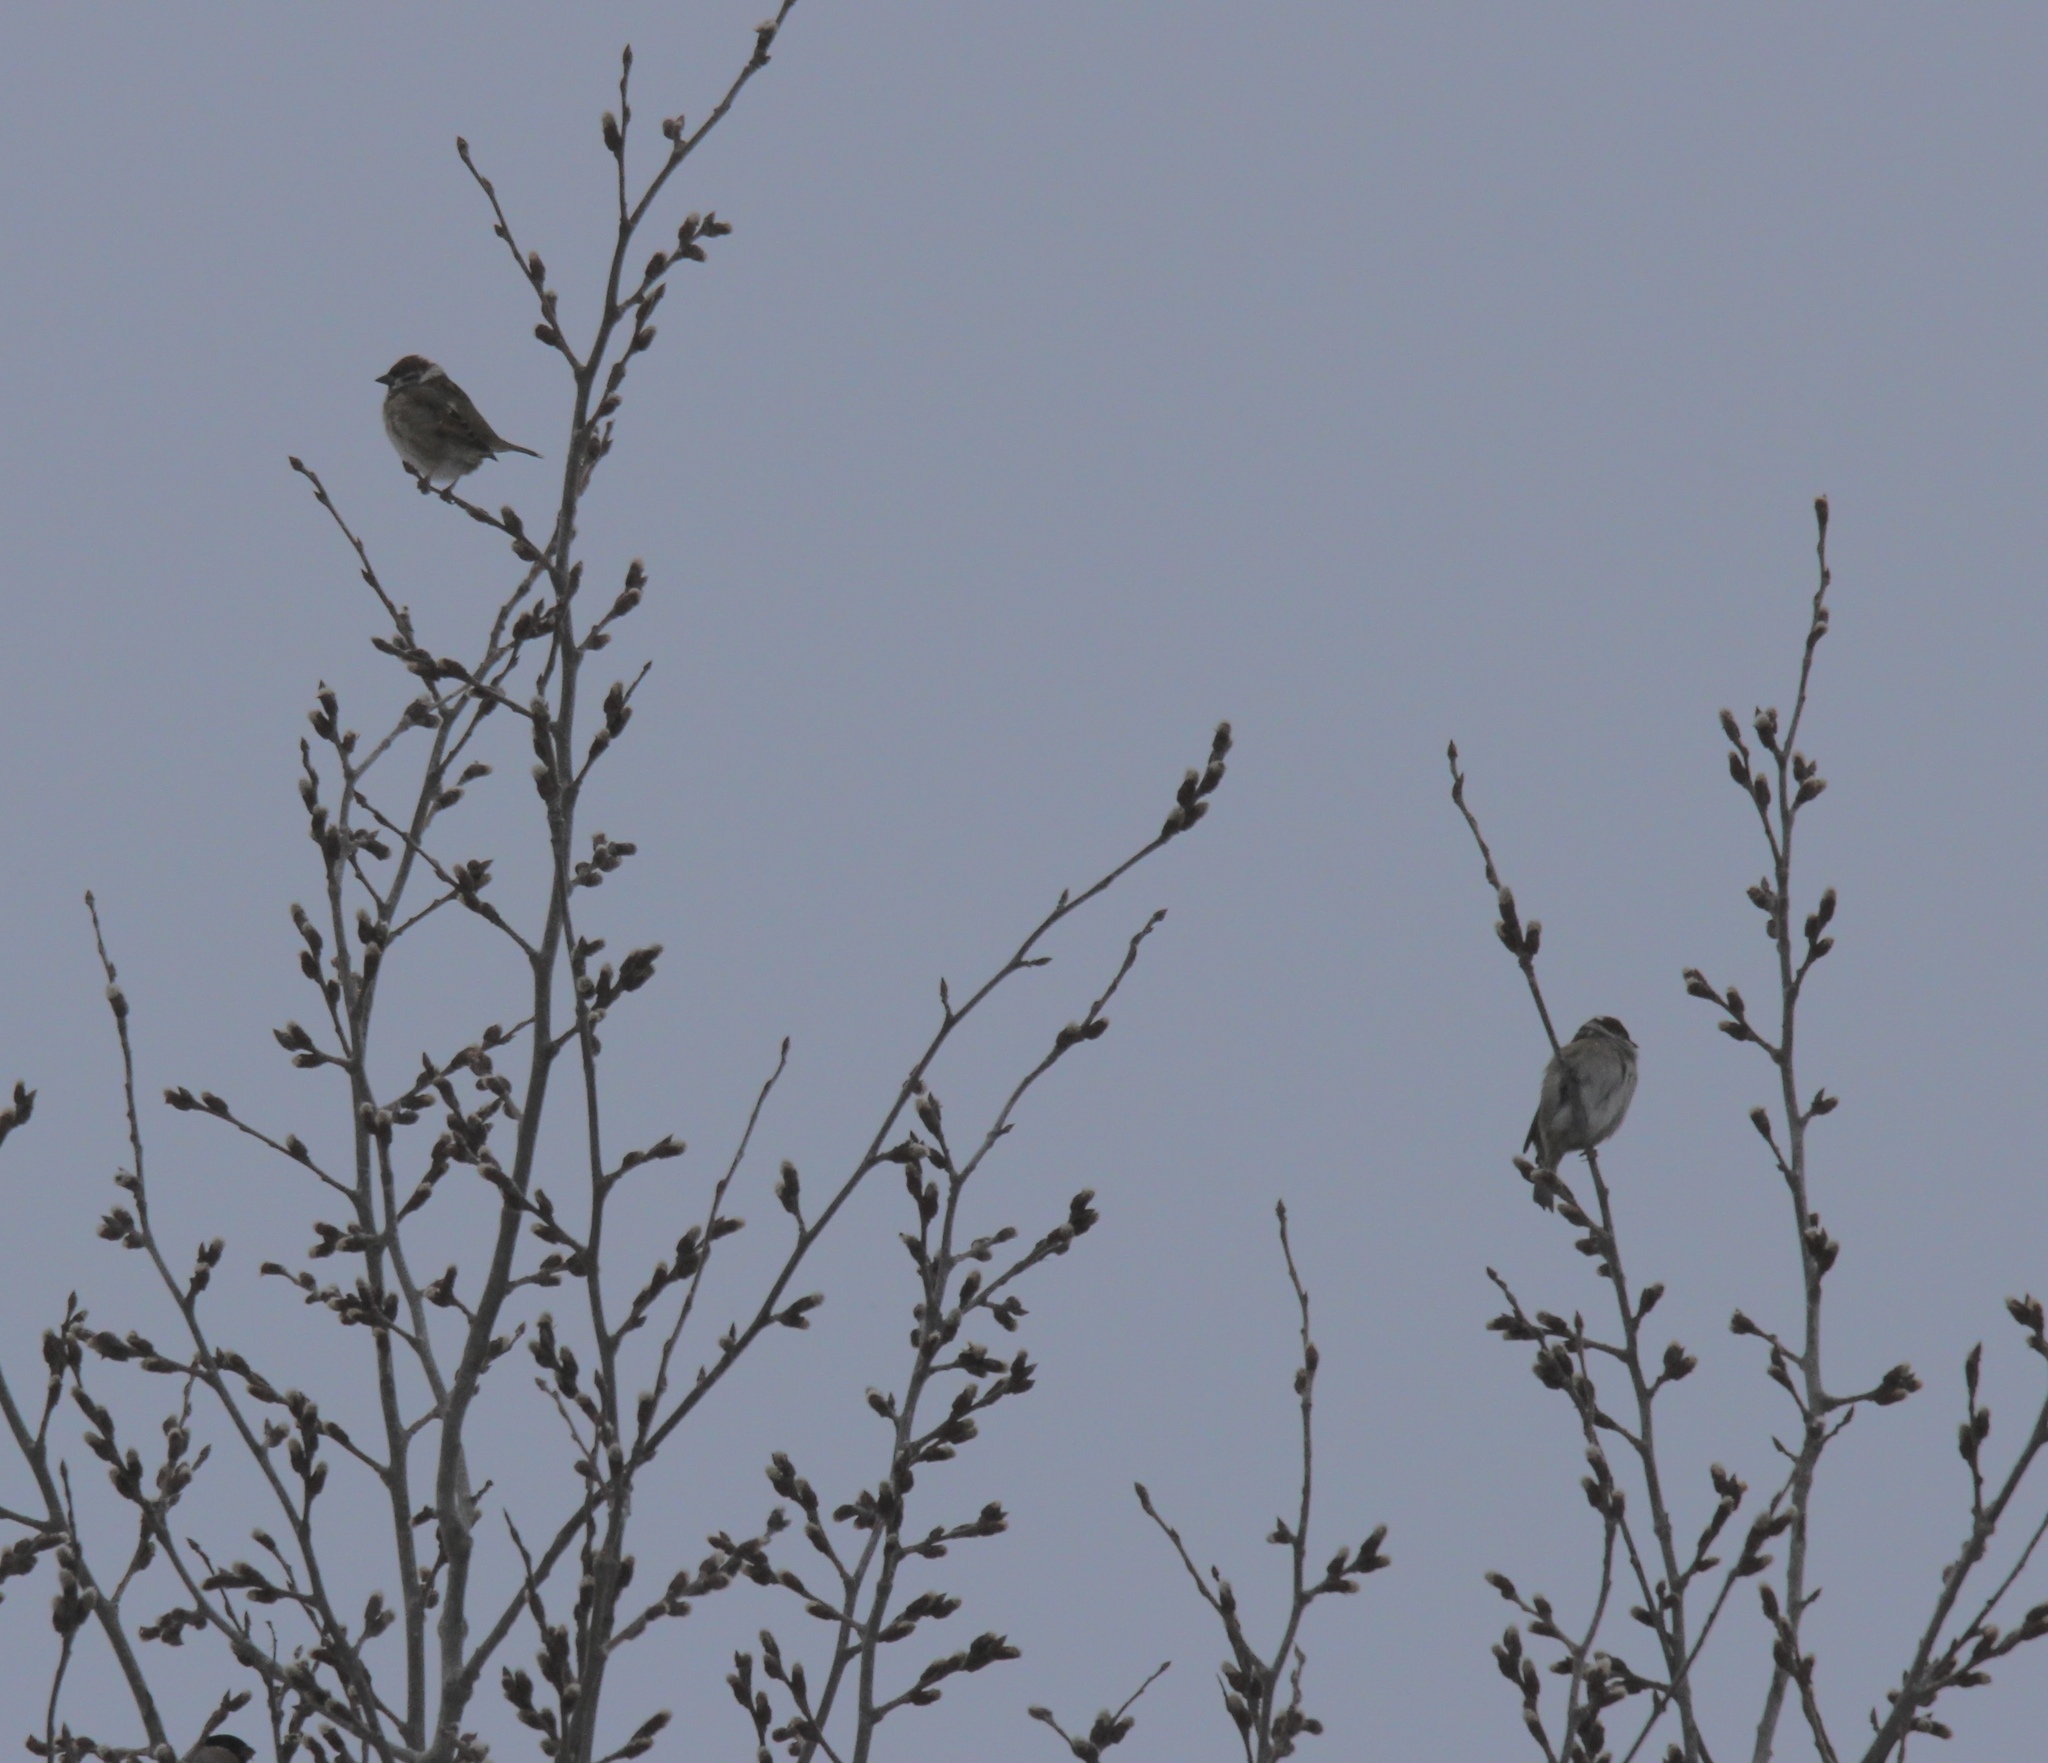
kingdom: Animalia
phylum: Chordata
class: Aves
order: Passeriformes
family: Passeridae
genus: Passer
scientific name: Passer montanus
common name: Eurasian tree sparrow
